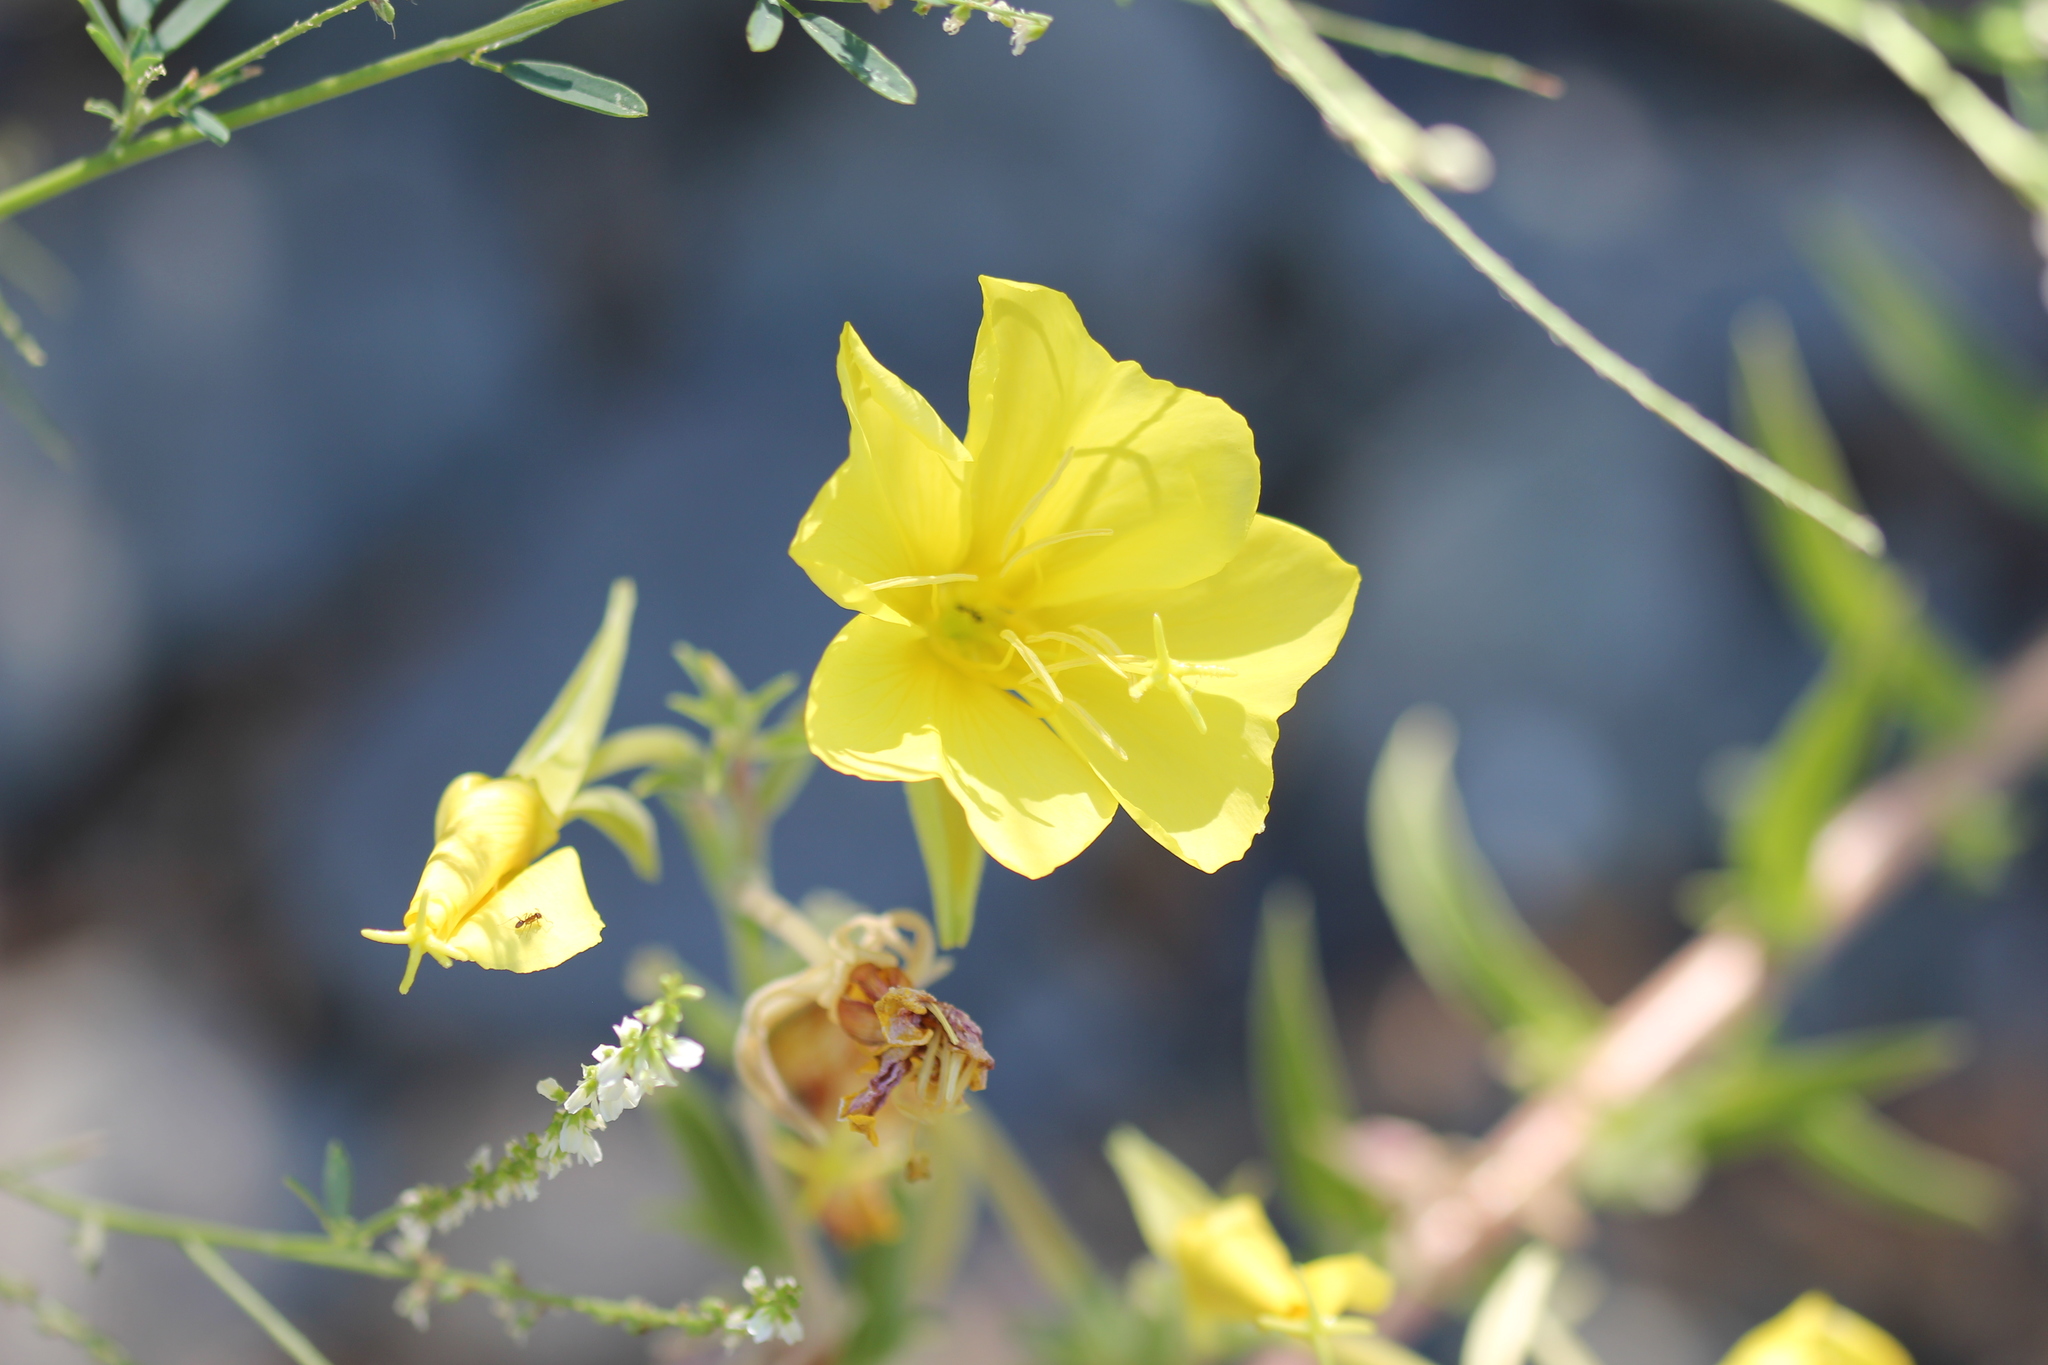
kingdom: Plantae
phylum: Tracheophyta
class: Magnoliopsida
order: Myrtales
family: Onagraceae
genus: Oenothera
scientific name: Oenothera elata
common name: Hooker's evening-primrose
